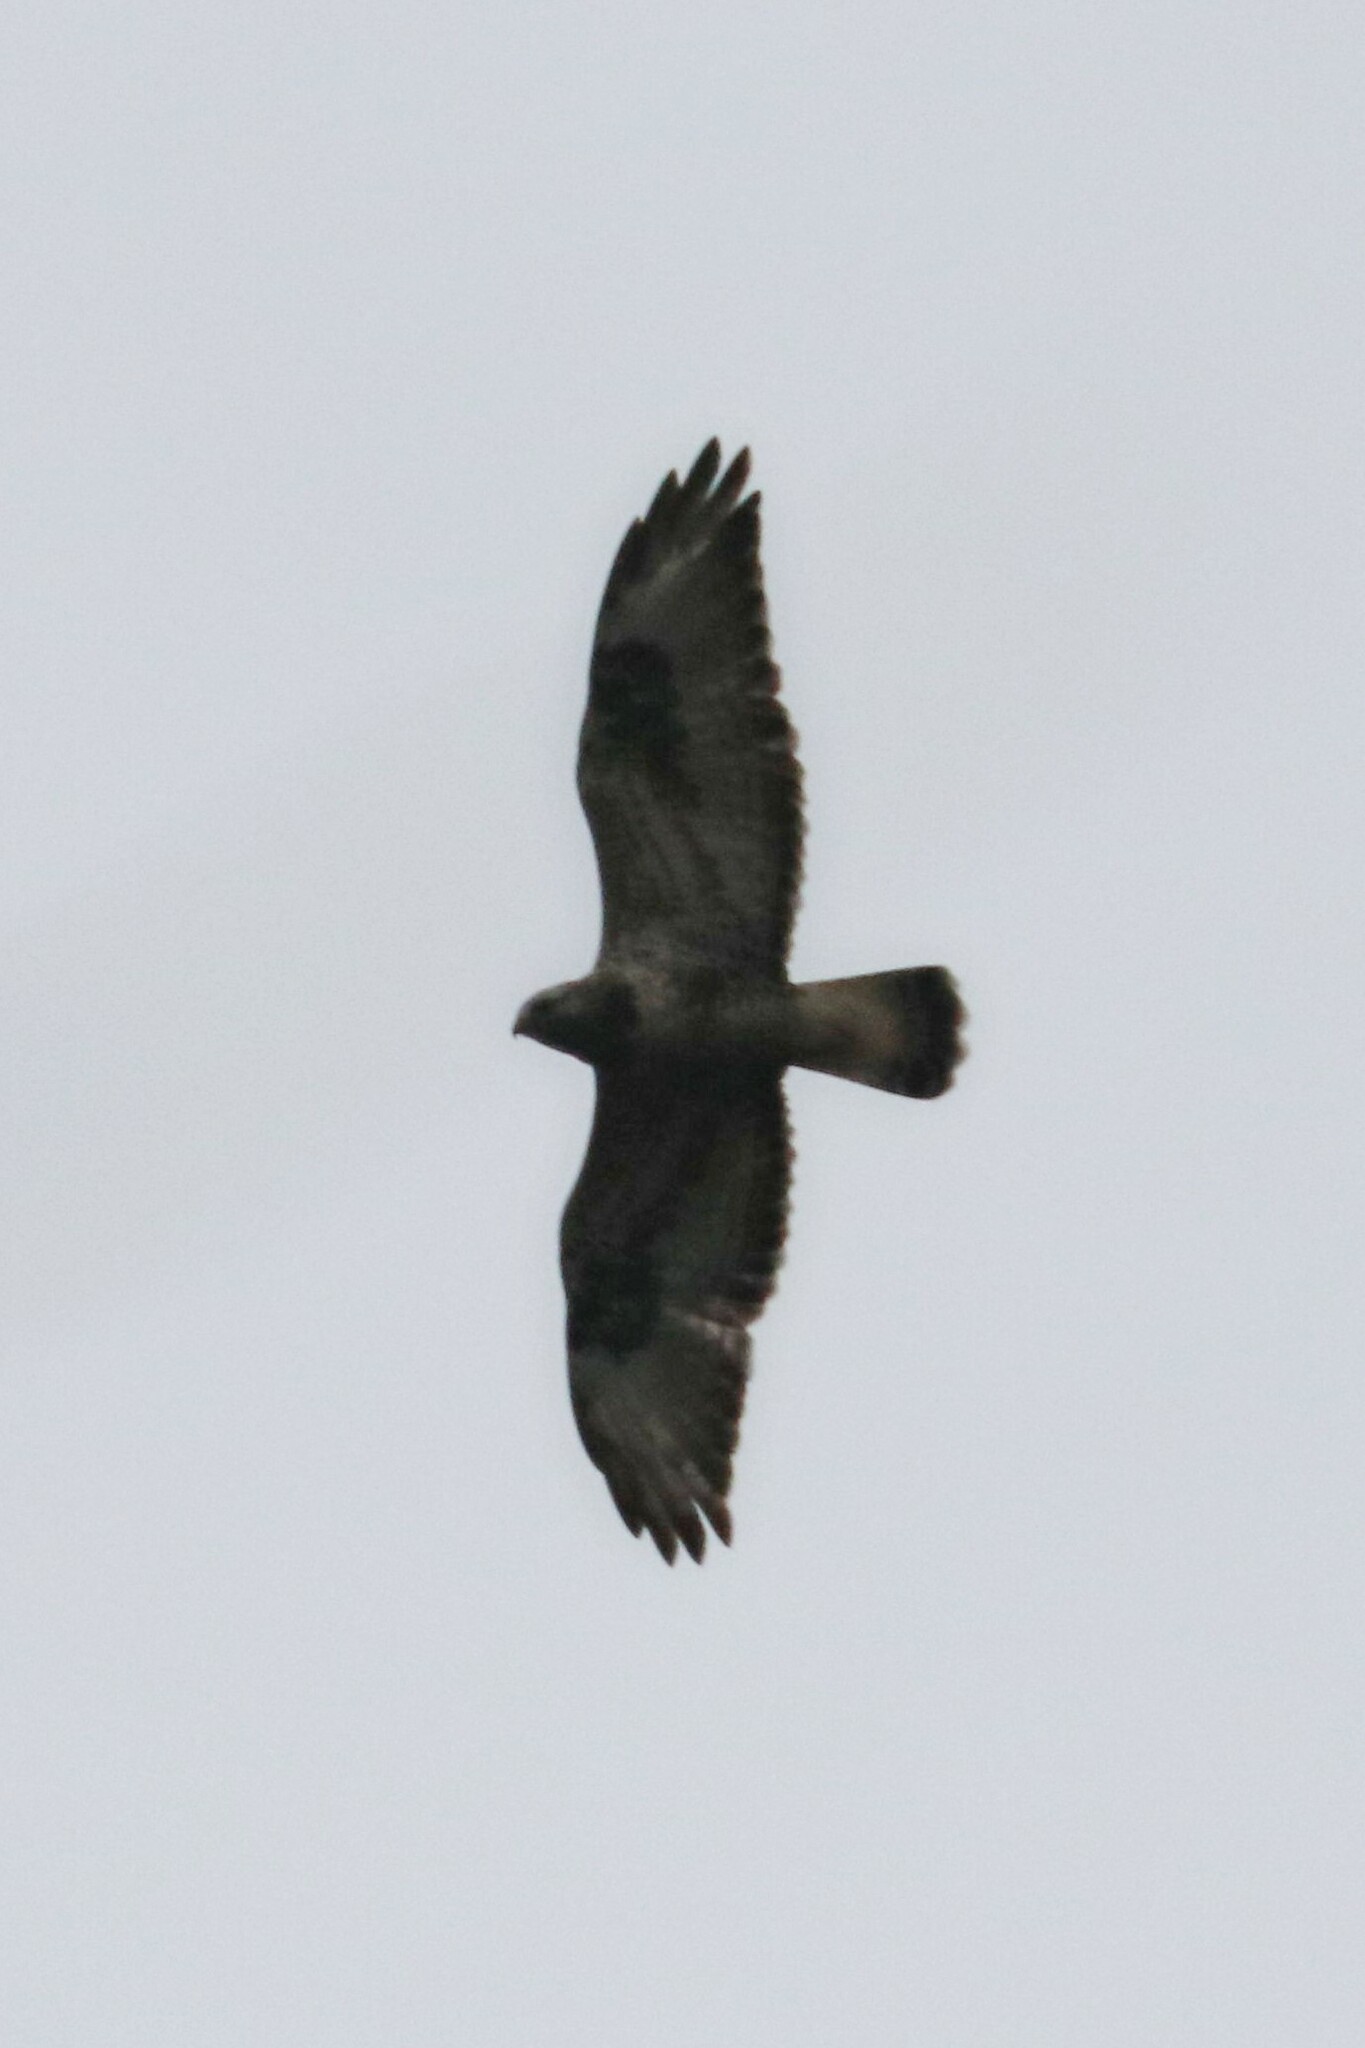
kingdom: Animalia
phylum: Chordata
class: Aves
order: Accipitriformes
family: Accipitridae
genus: Buteo
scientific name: Buteo lagopus
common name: Rough-legged buzzard
